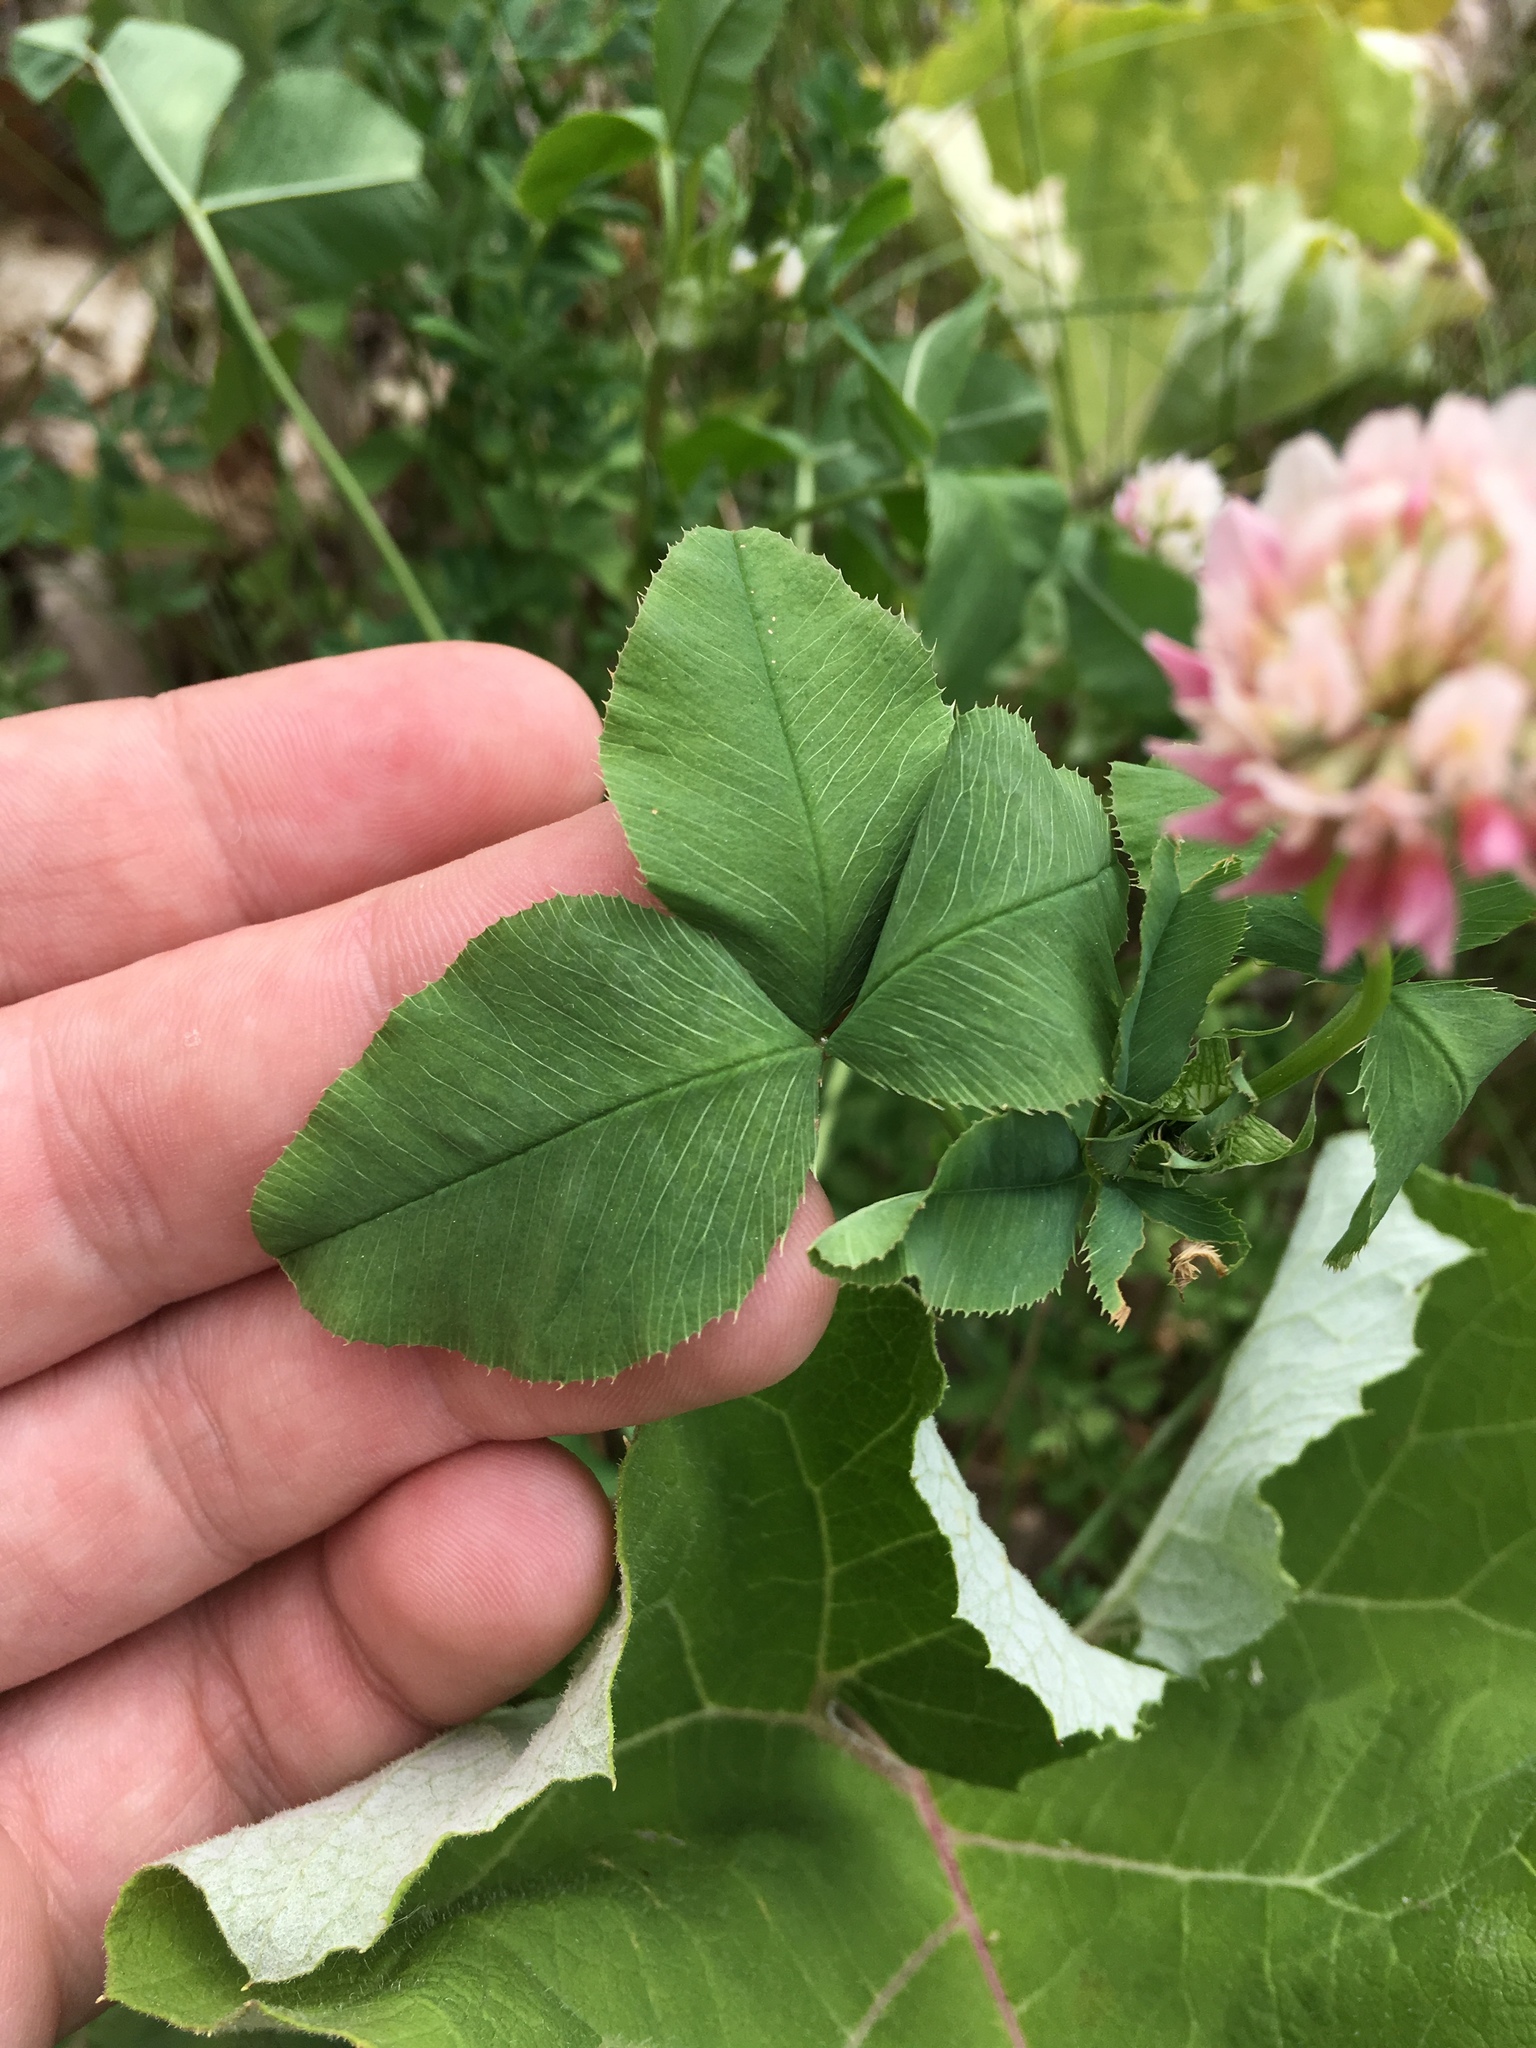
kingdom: Plantae
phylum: Tracheophyta
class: Magnoliopsida
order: Fabales
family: Fabaceae
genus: Trifolium
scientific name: Trifolium hybridum
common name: Alsike clover
